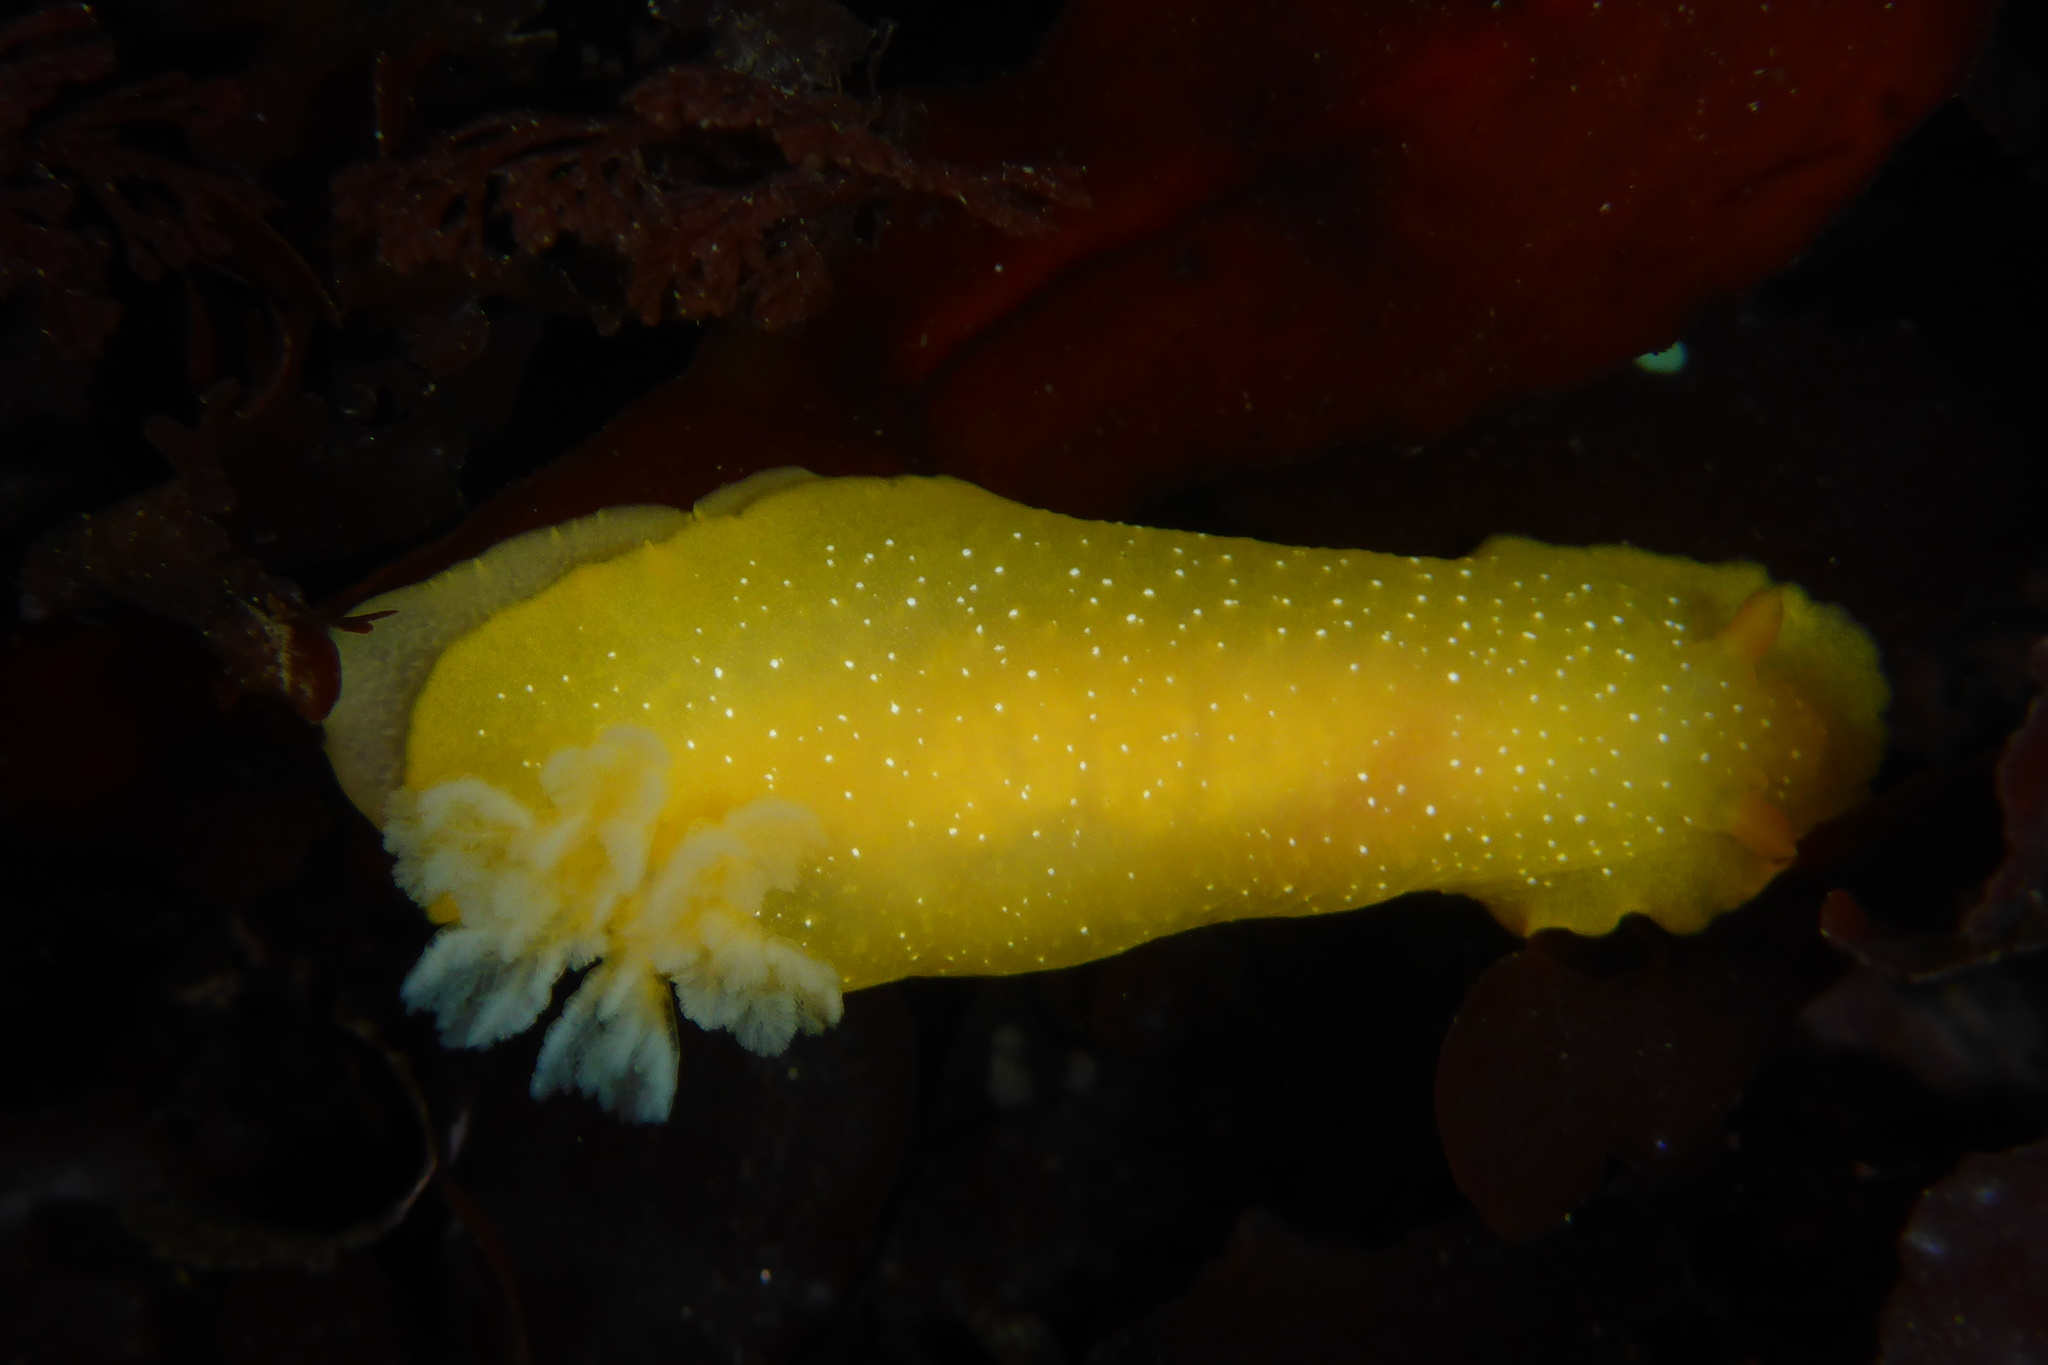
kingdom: Animalia
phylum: Mollusca
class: Gastropoda
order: Nudibranchia
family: Dendrodorididae
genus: Doriopsilla
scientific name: Doriopsilla fulva
